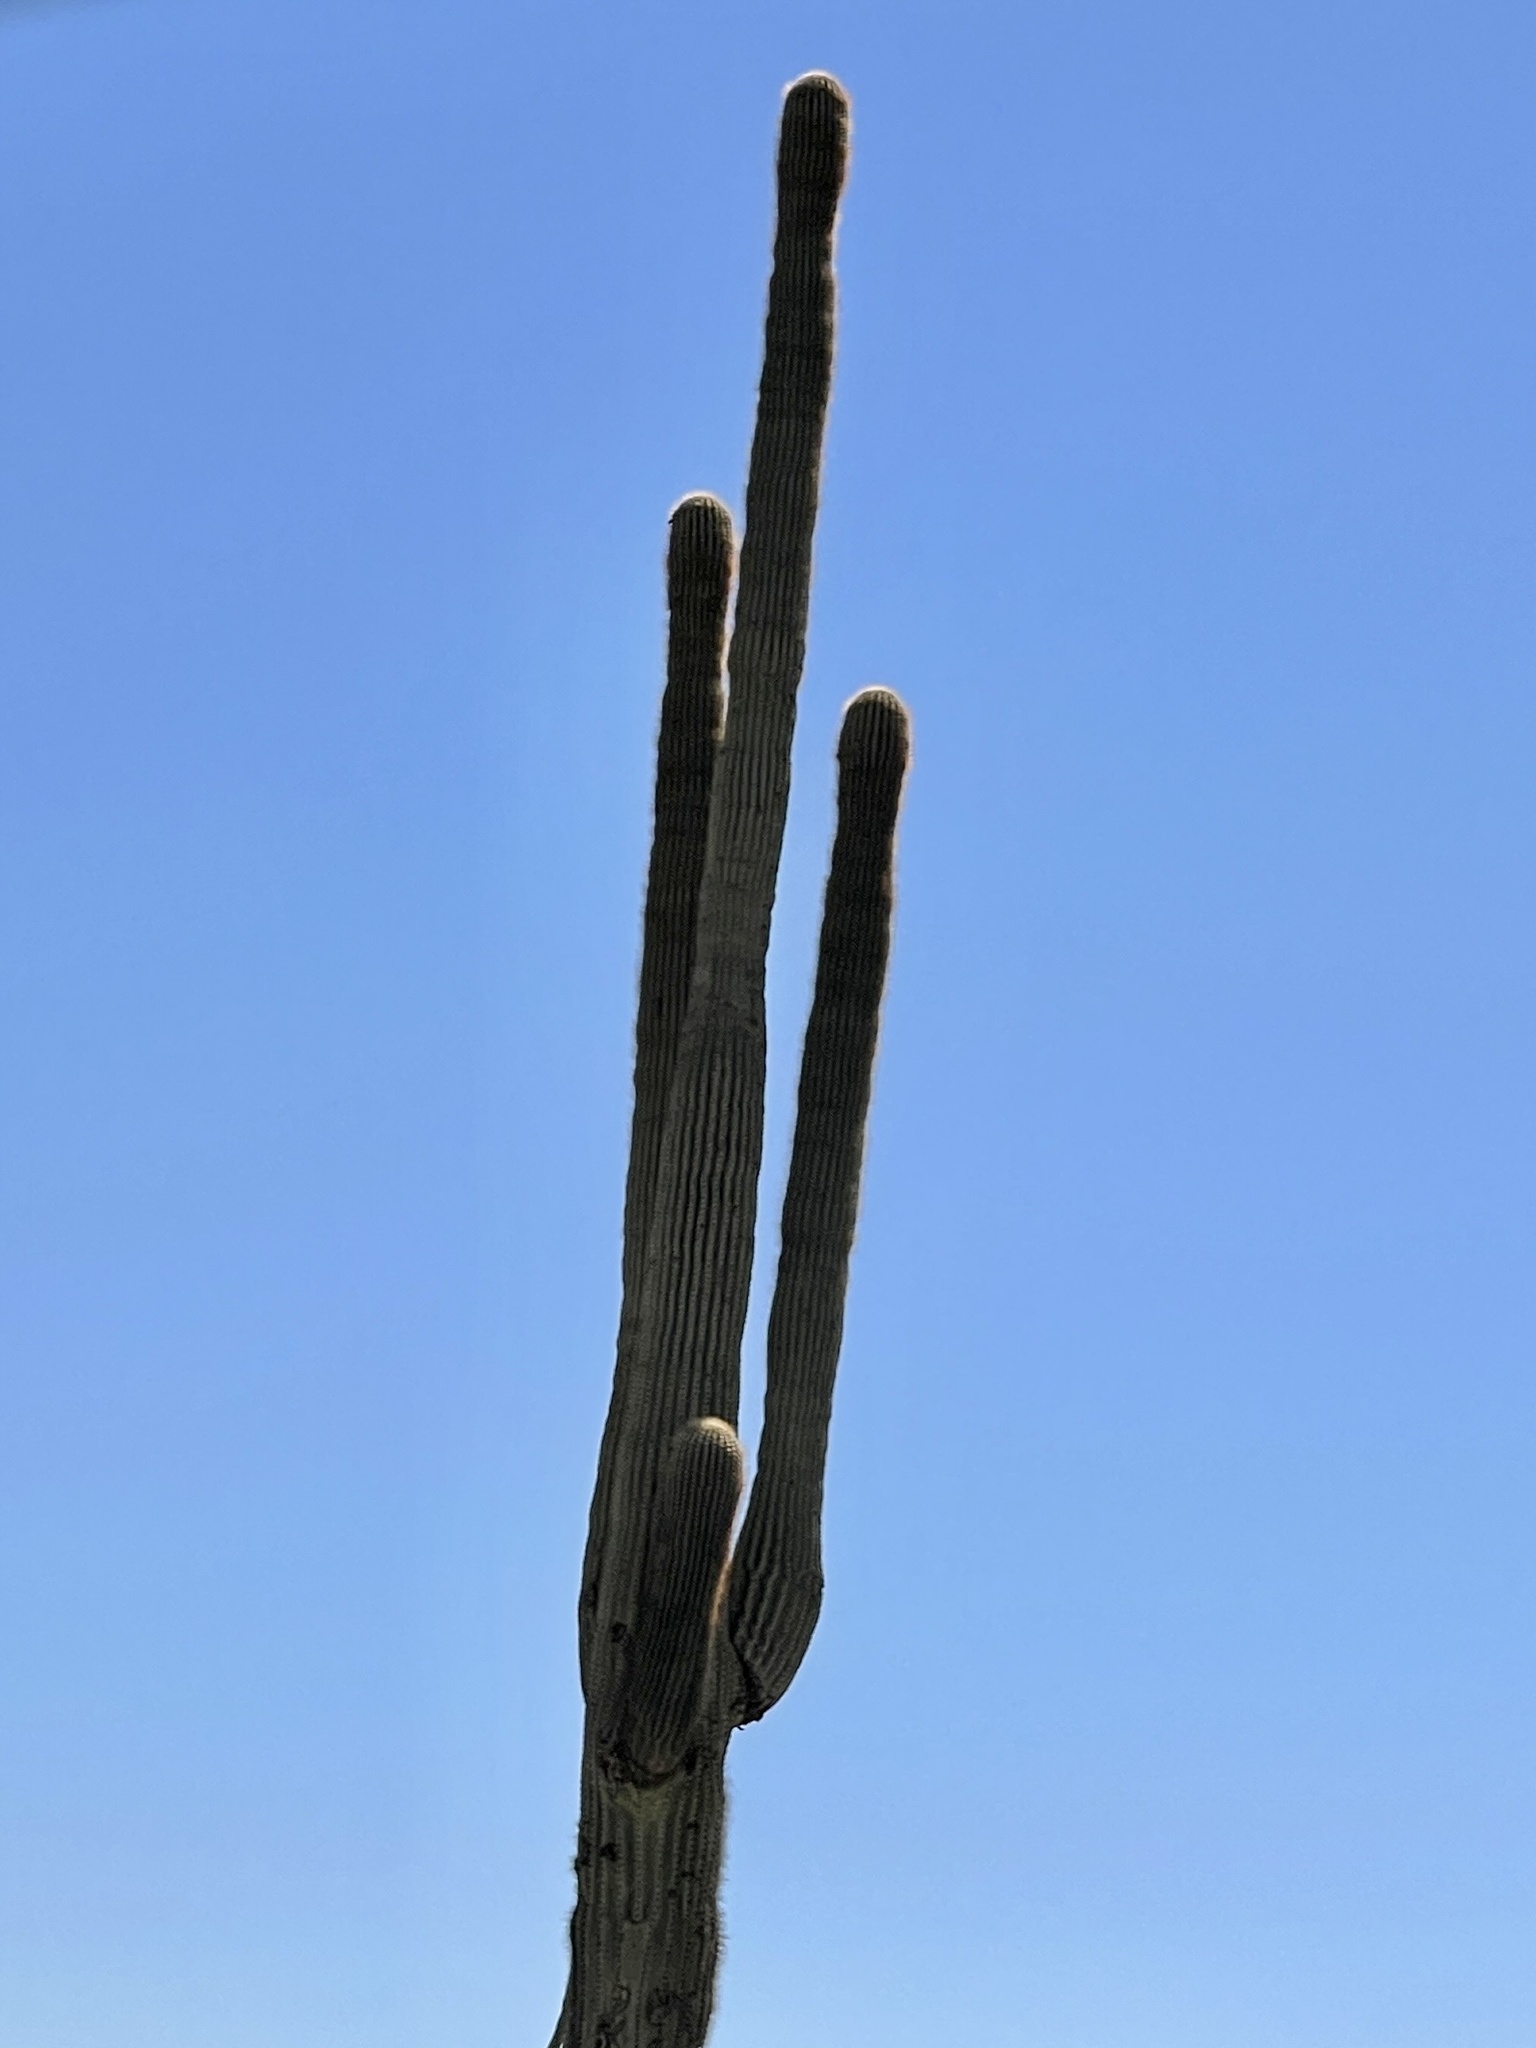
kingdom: Plantae
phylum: Tracheophyta
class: Magnoliopsida
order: Caryophyllales
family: Cactaceae
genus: Carnegiea
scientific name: Carnegiea gigantea
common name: Saguaro
